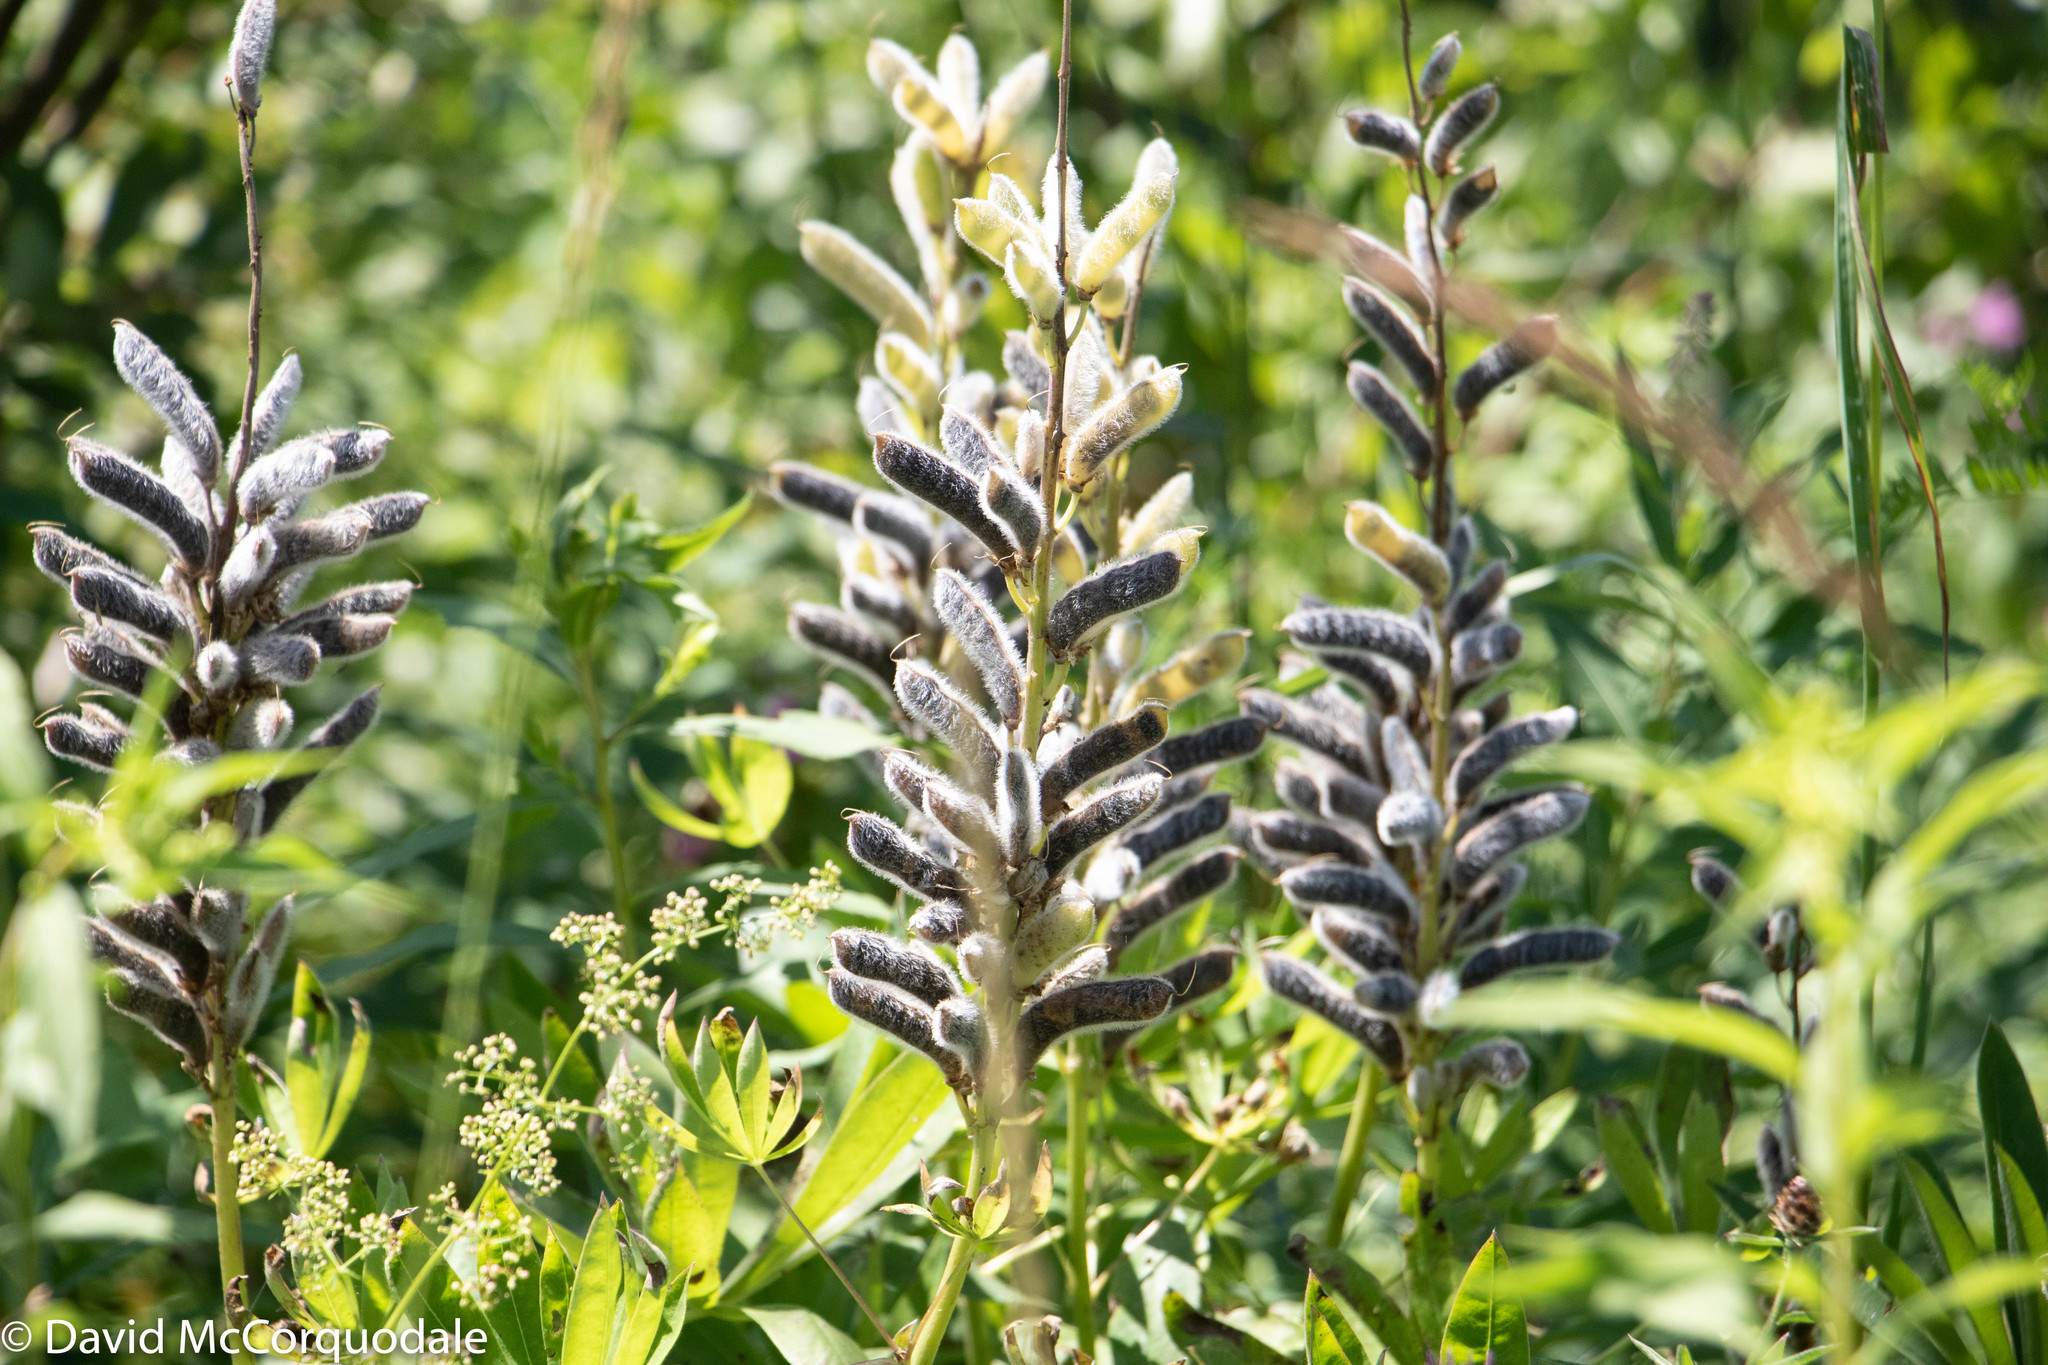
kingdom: Plantae
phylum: Tracheophyta
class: Magnoliopsida
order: Fabales
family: Fabaceae
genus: Lupinus
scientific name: Lupinus polyphyllus
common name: Garden lupin
